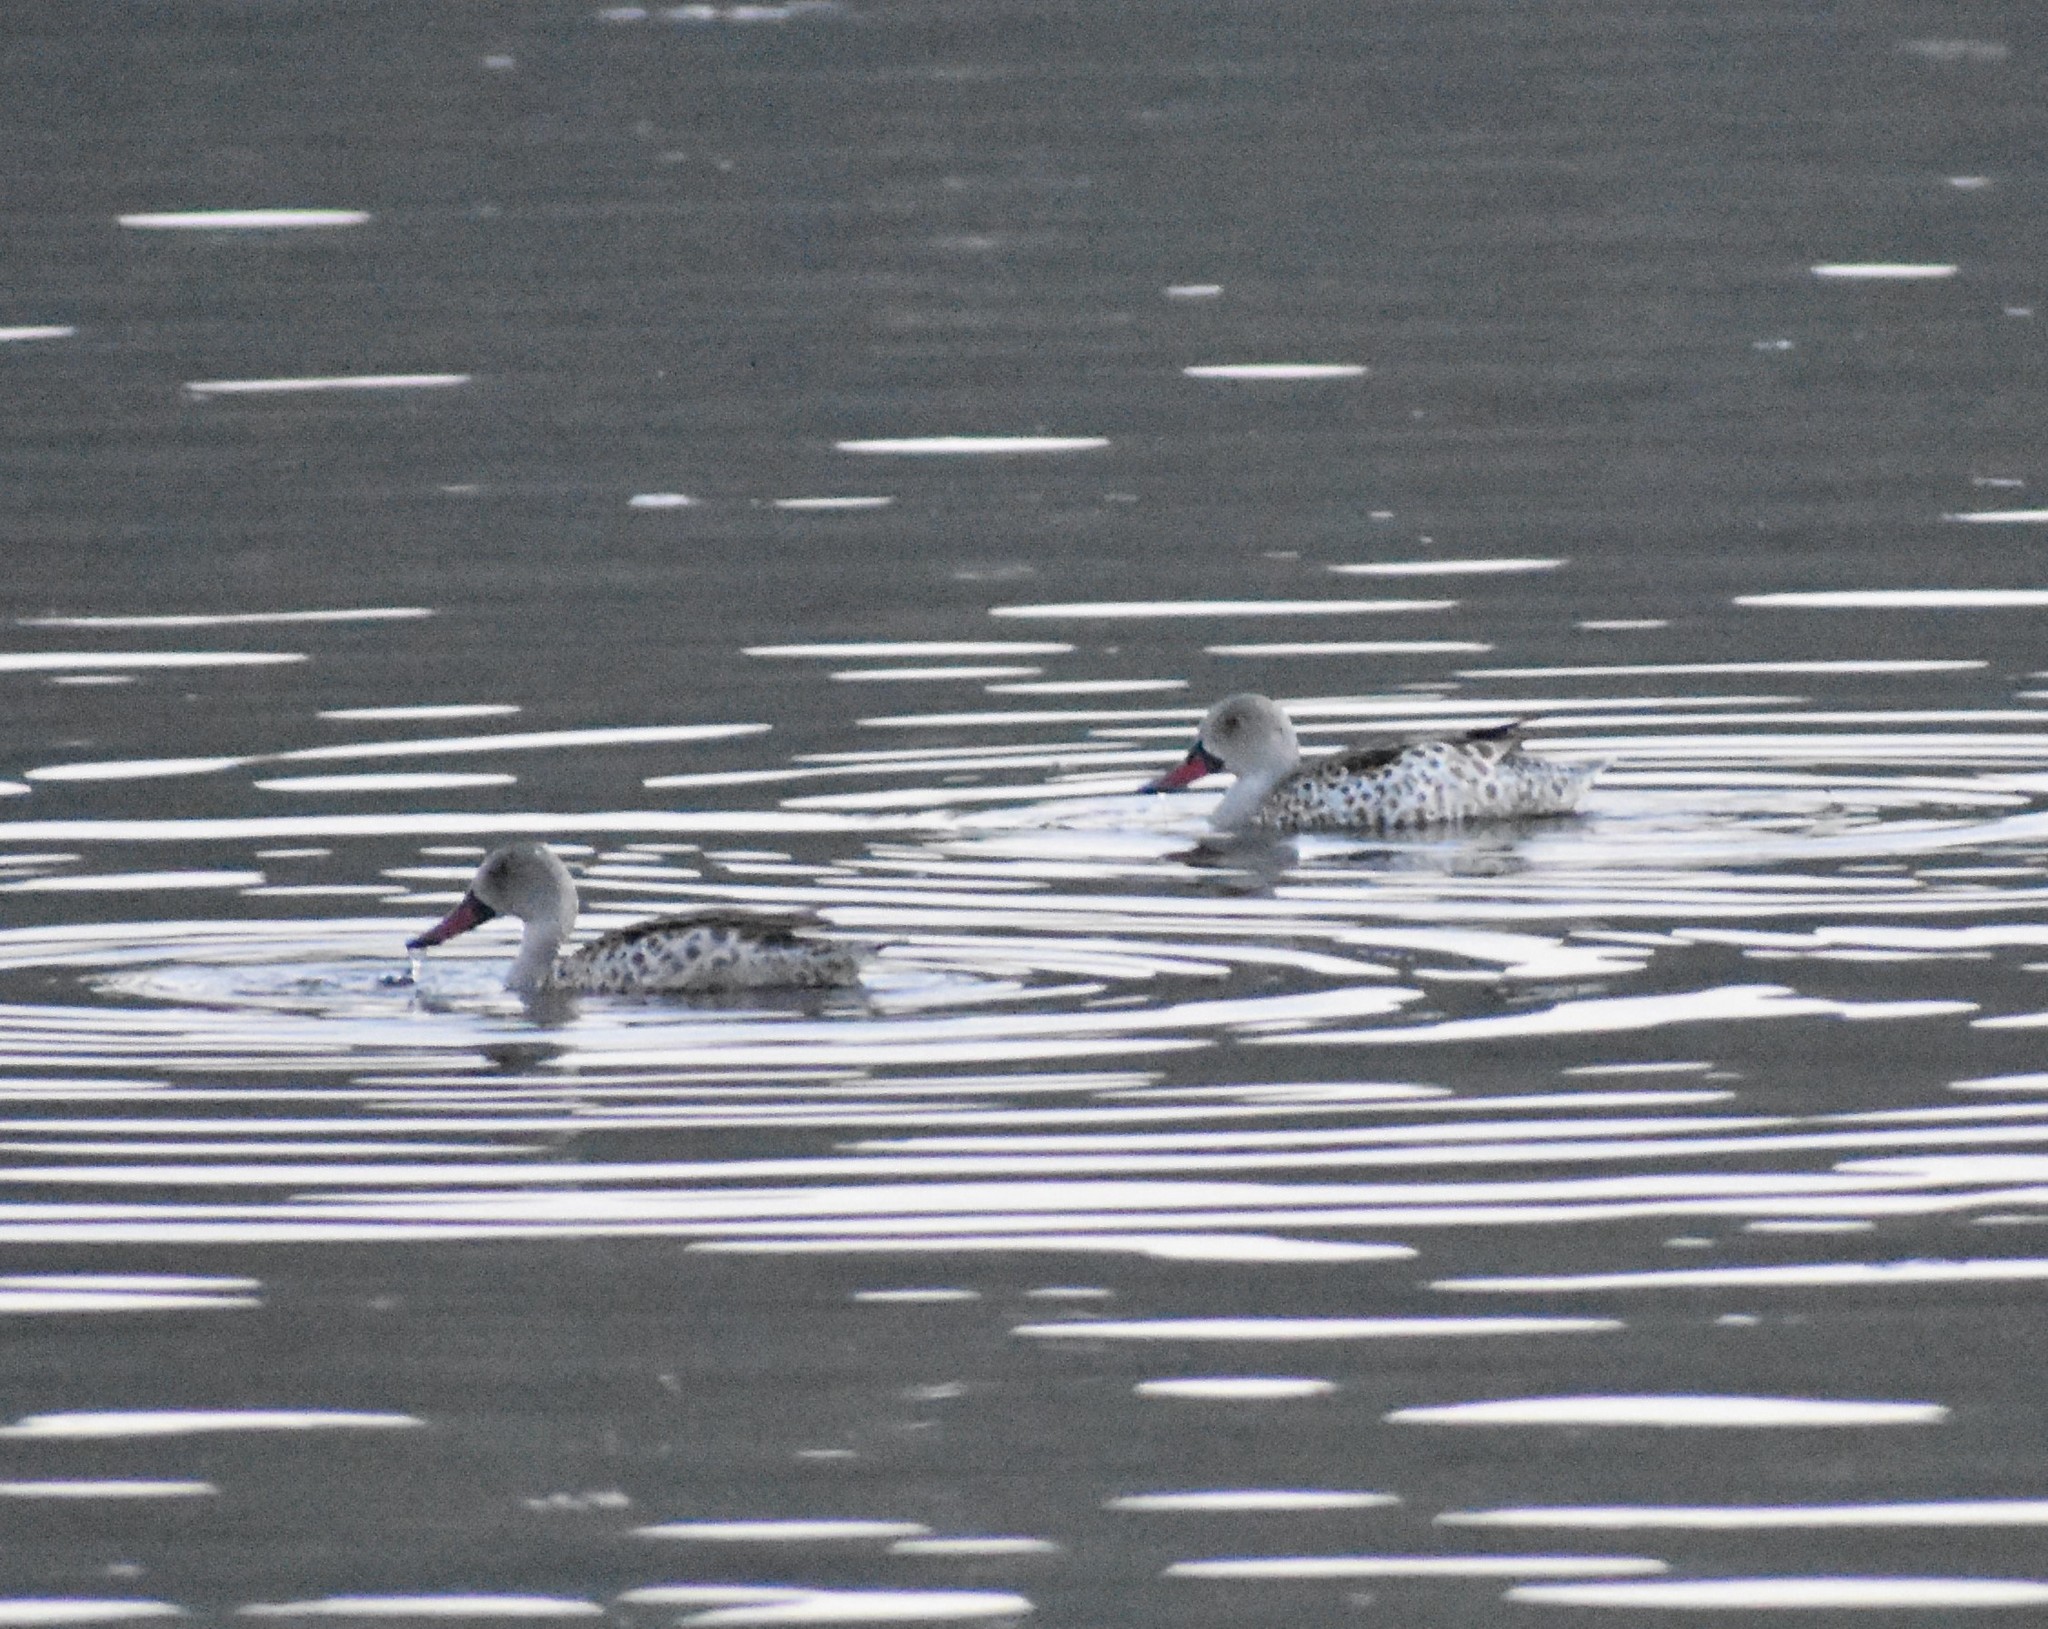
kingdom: Animalia
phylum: Chordata
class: Aves
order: Anseriformes
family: Anatidae
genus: Anas
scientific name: Anas capensis
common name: Cape teal
